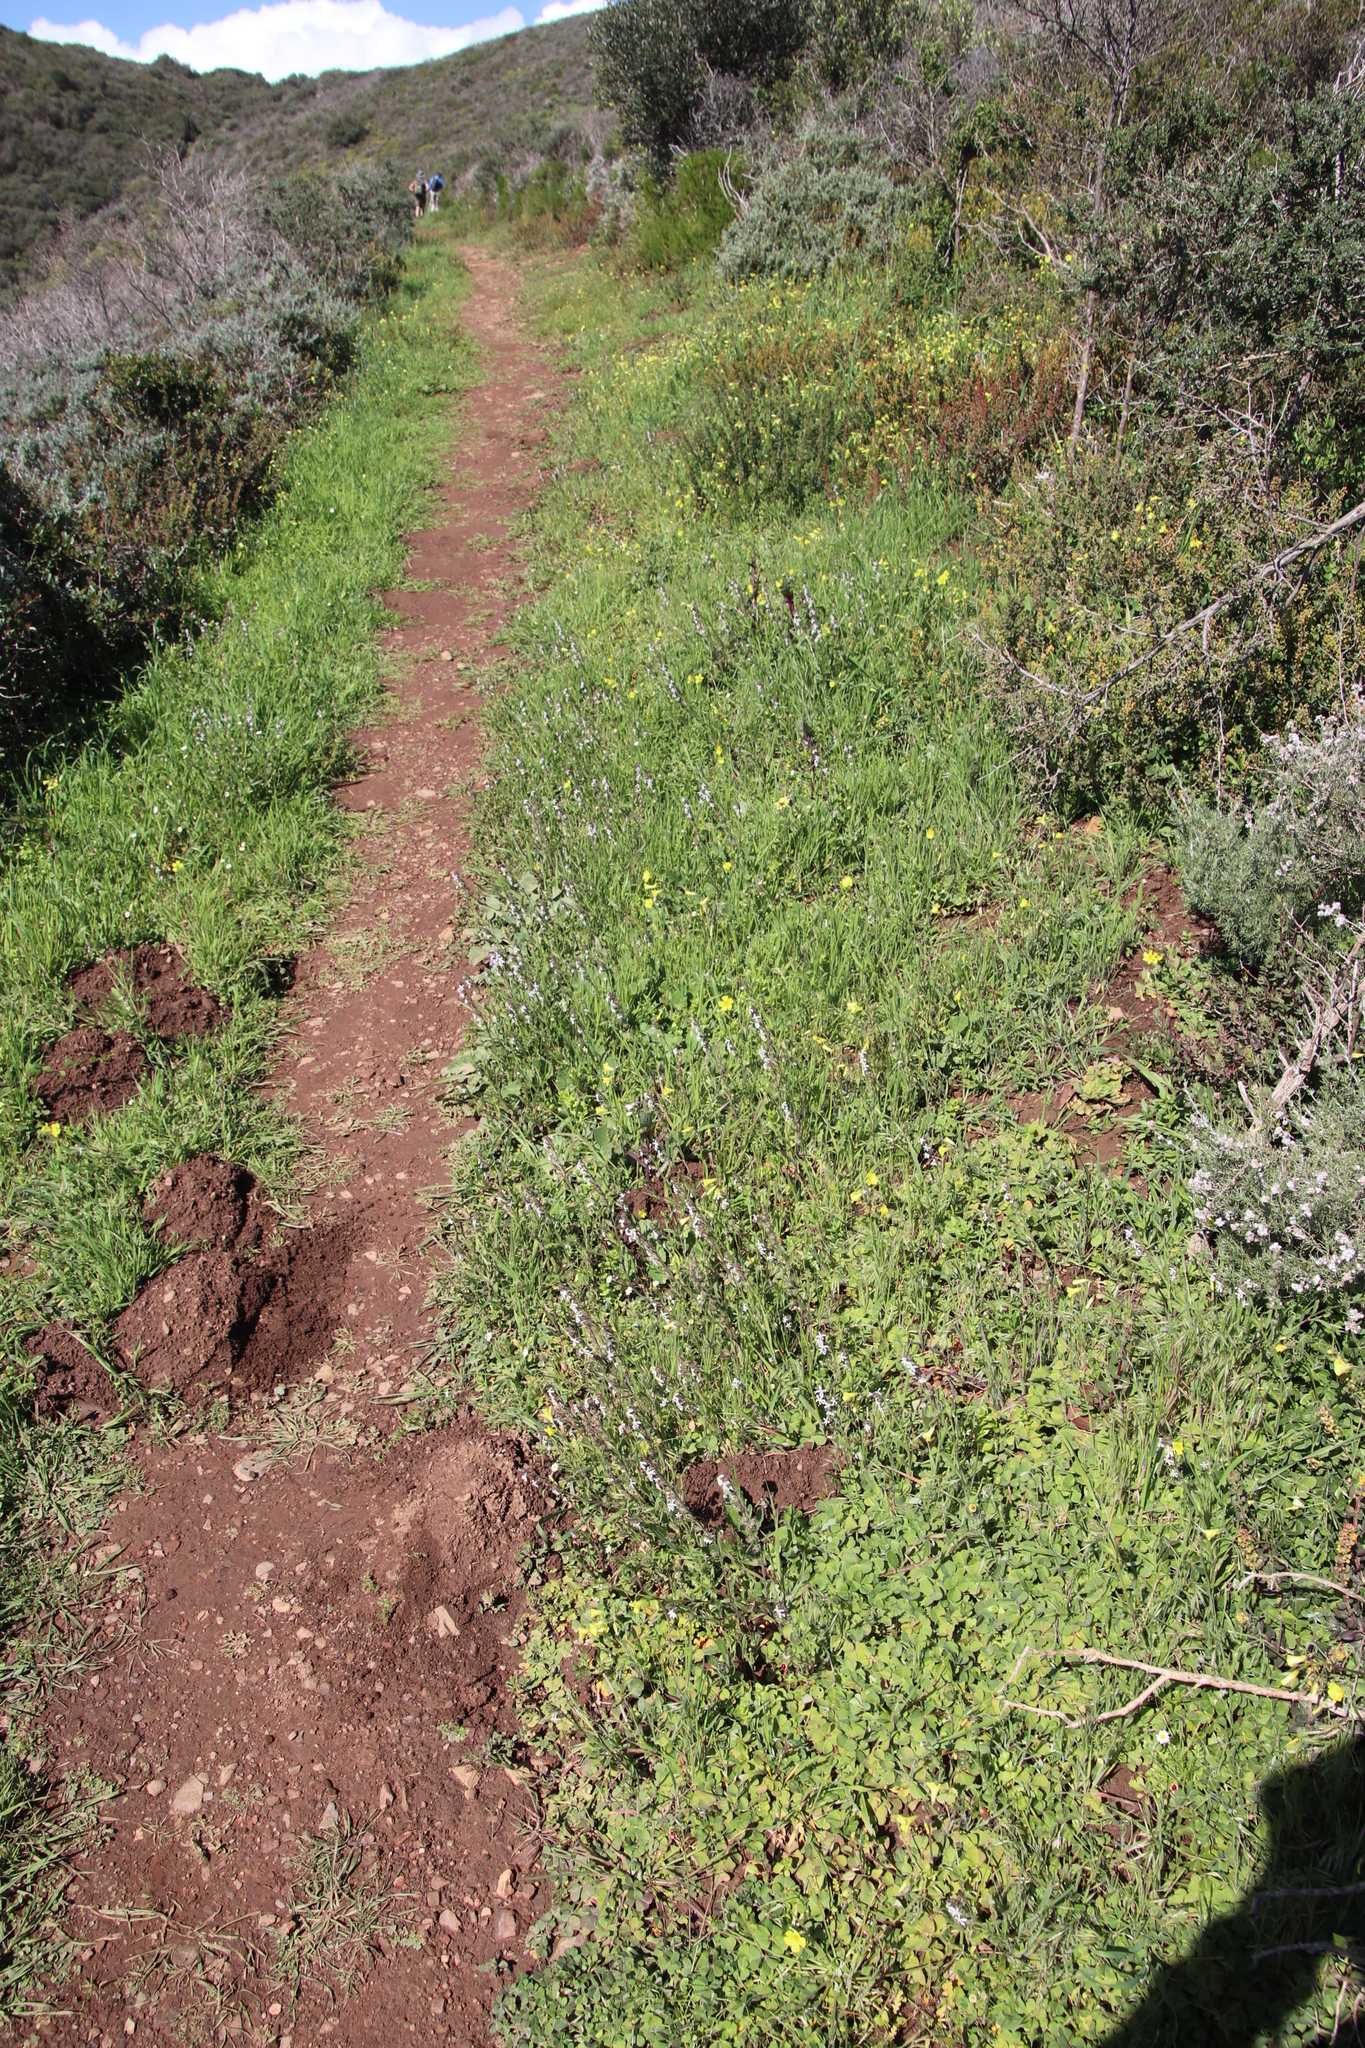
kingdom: Plantae
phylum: Tracheophyta
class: Magnoliopsida
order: Caryophyllales
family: Caryophyllaceae
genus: Silene
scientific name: Silene gallica
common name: Small-flowered catchfly
